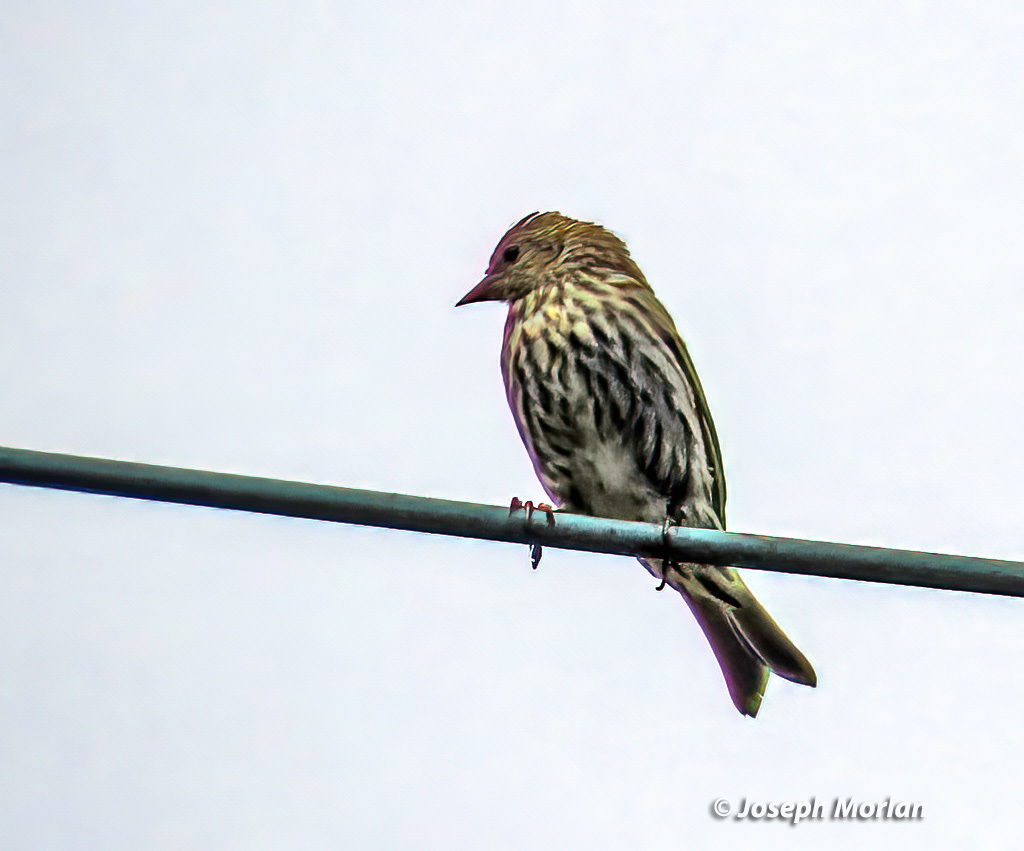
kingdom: Animalia
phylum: Chordata
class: Aves
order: Passeriformes
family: Fringillidae
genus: Spinus
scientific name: Spinus pinus
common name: Pine siskin
